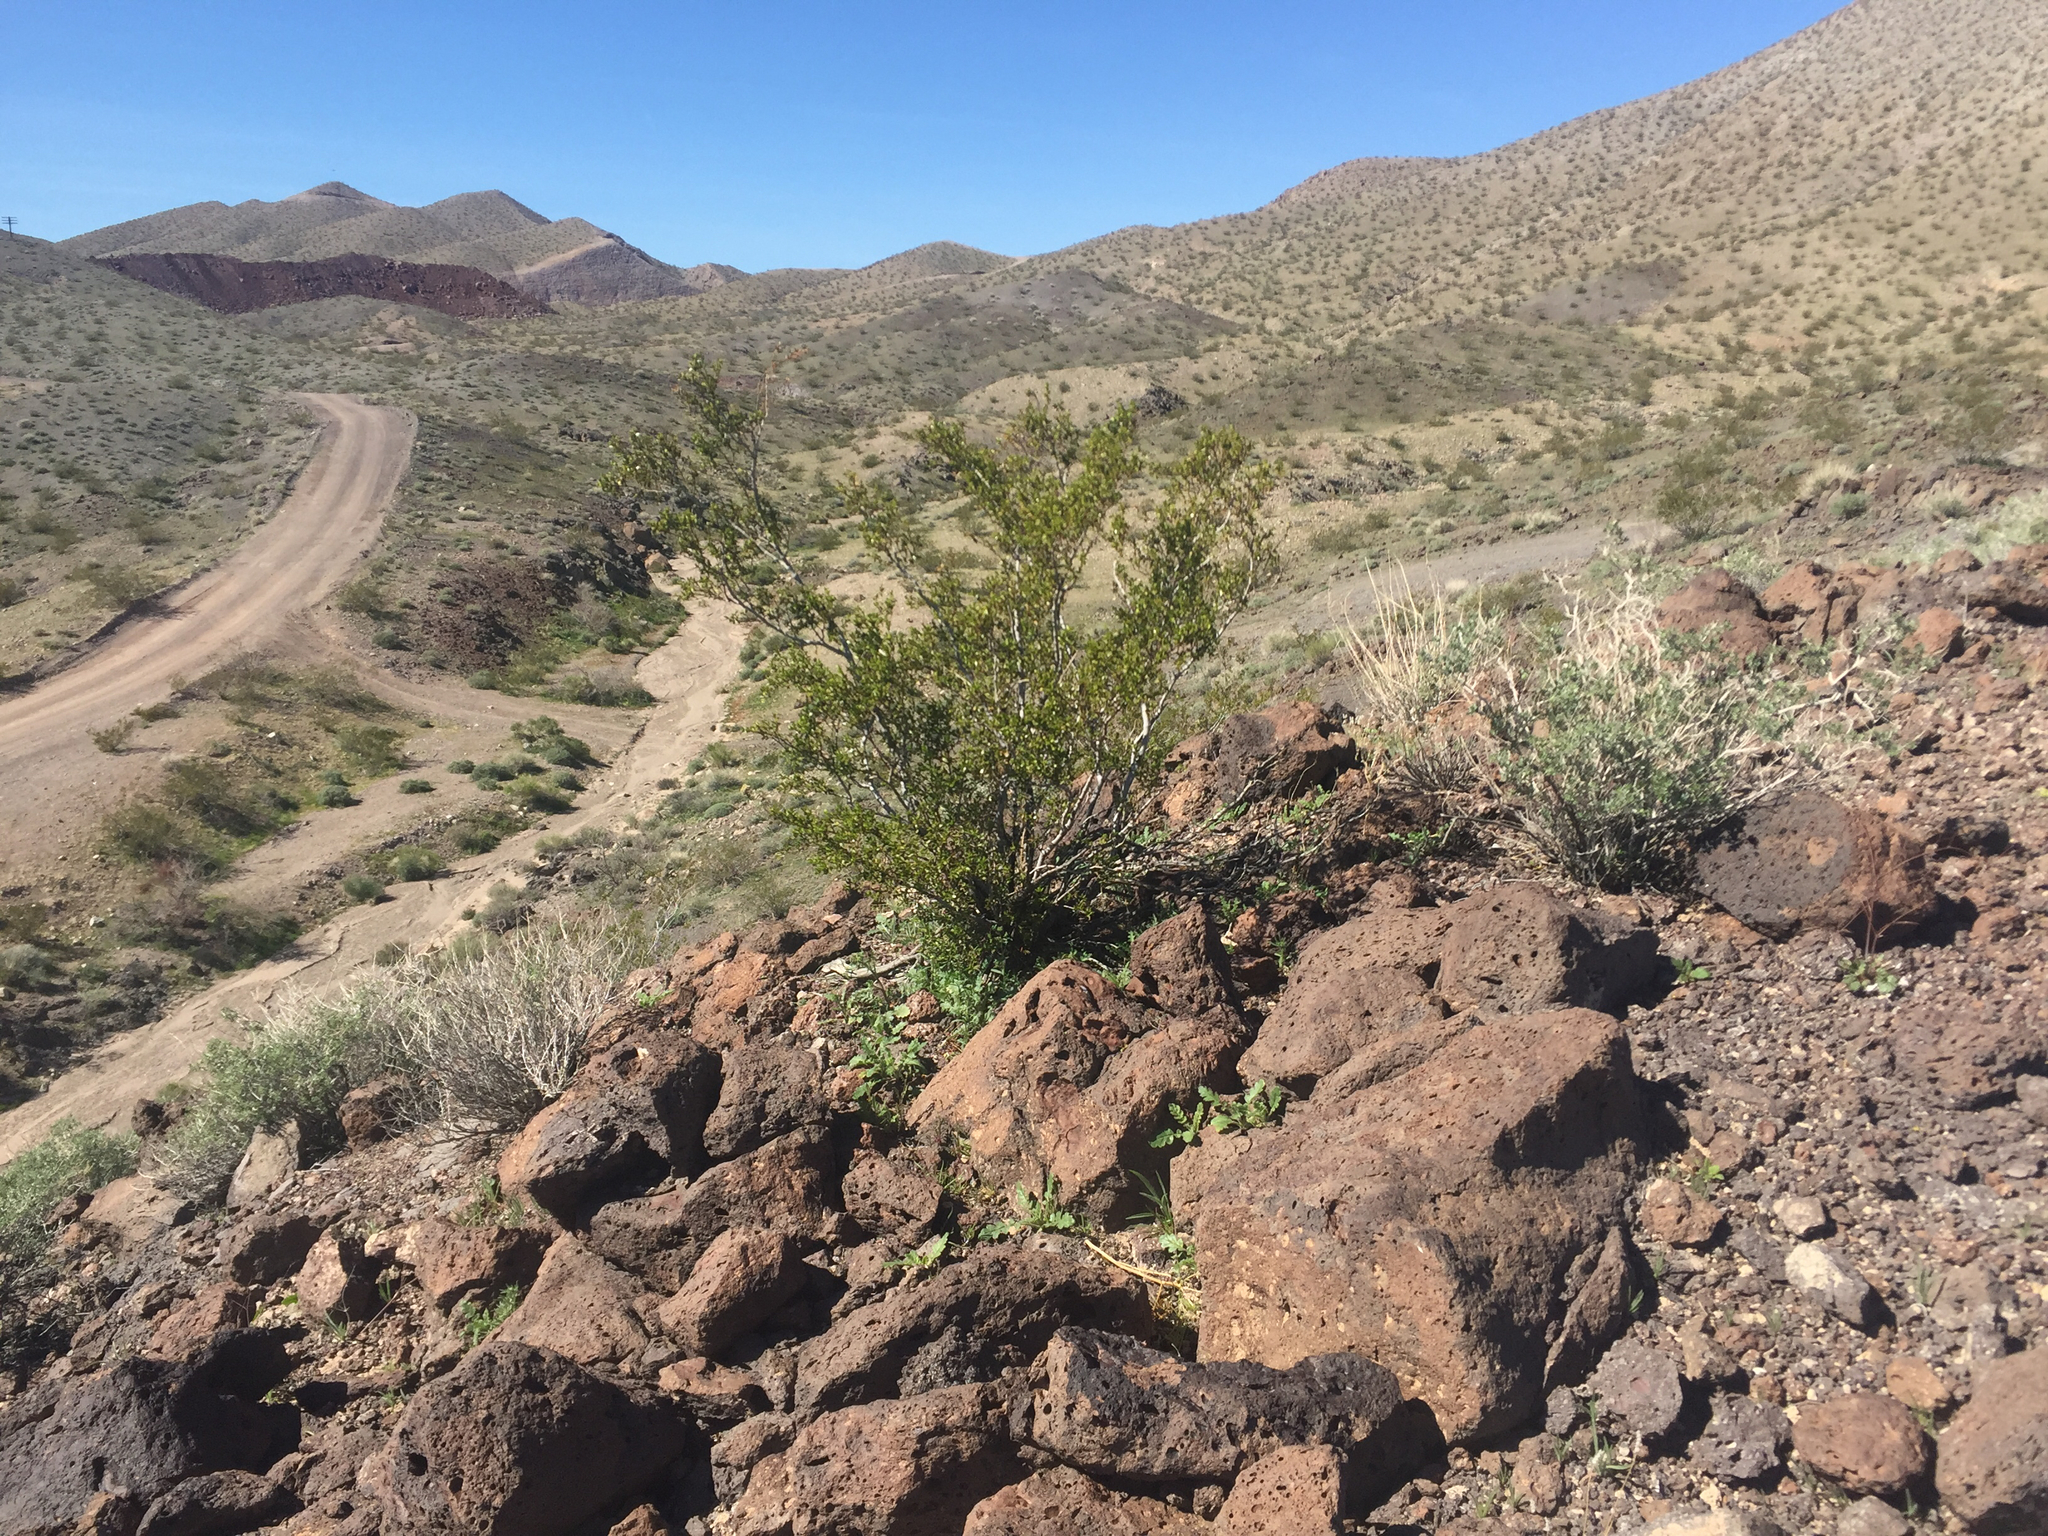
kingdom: Plantae
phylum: Tracheophyta
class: Magnoliopsida
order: Zygophyllales
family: Zygophyllaceae
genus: Larrea
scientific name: Larrea tridentata
